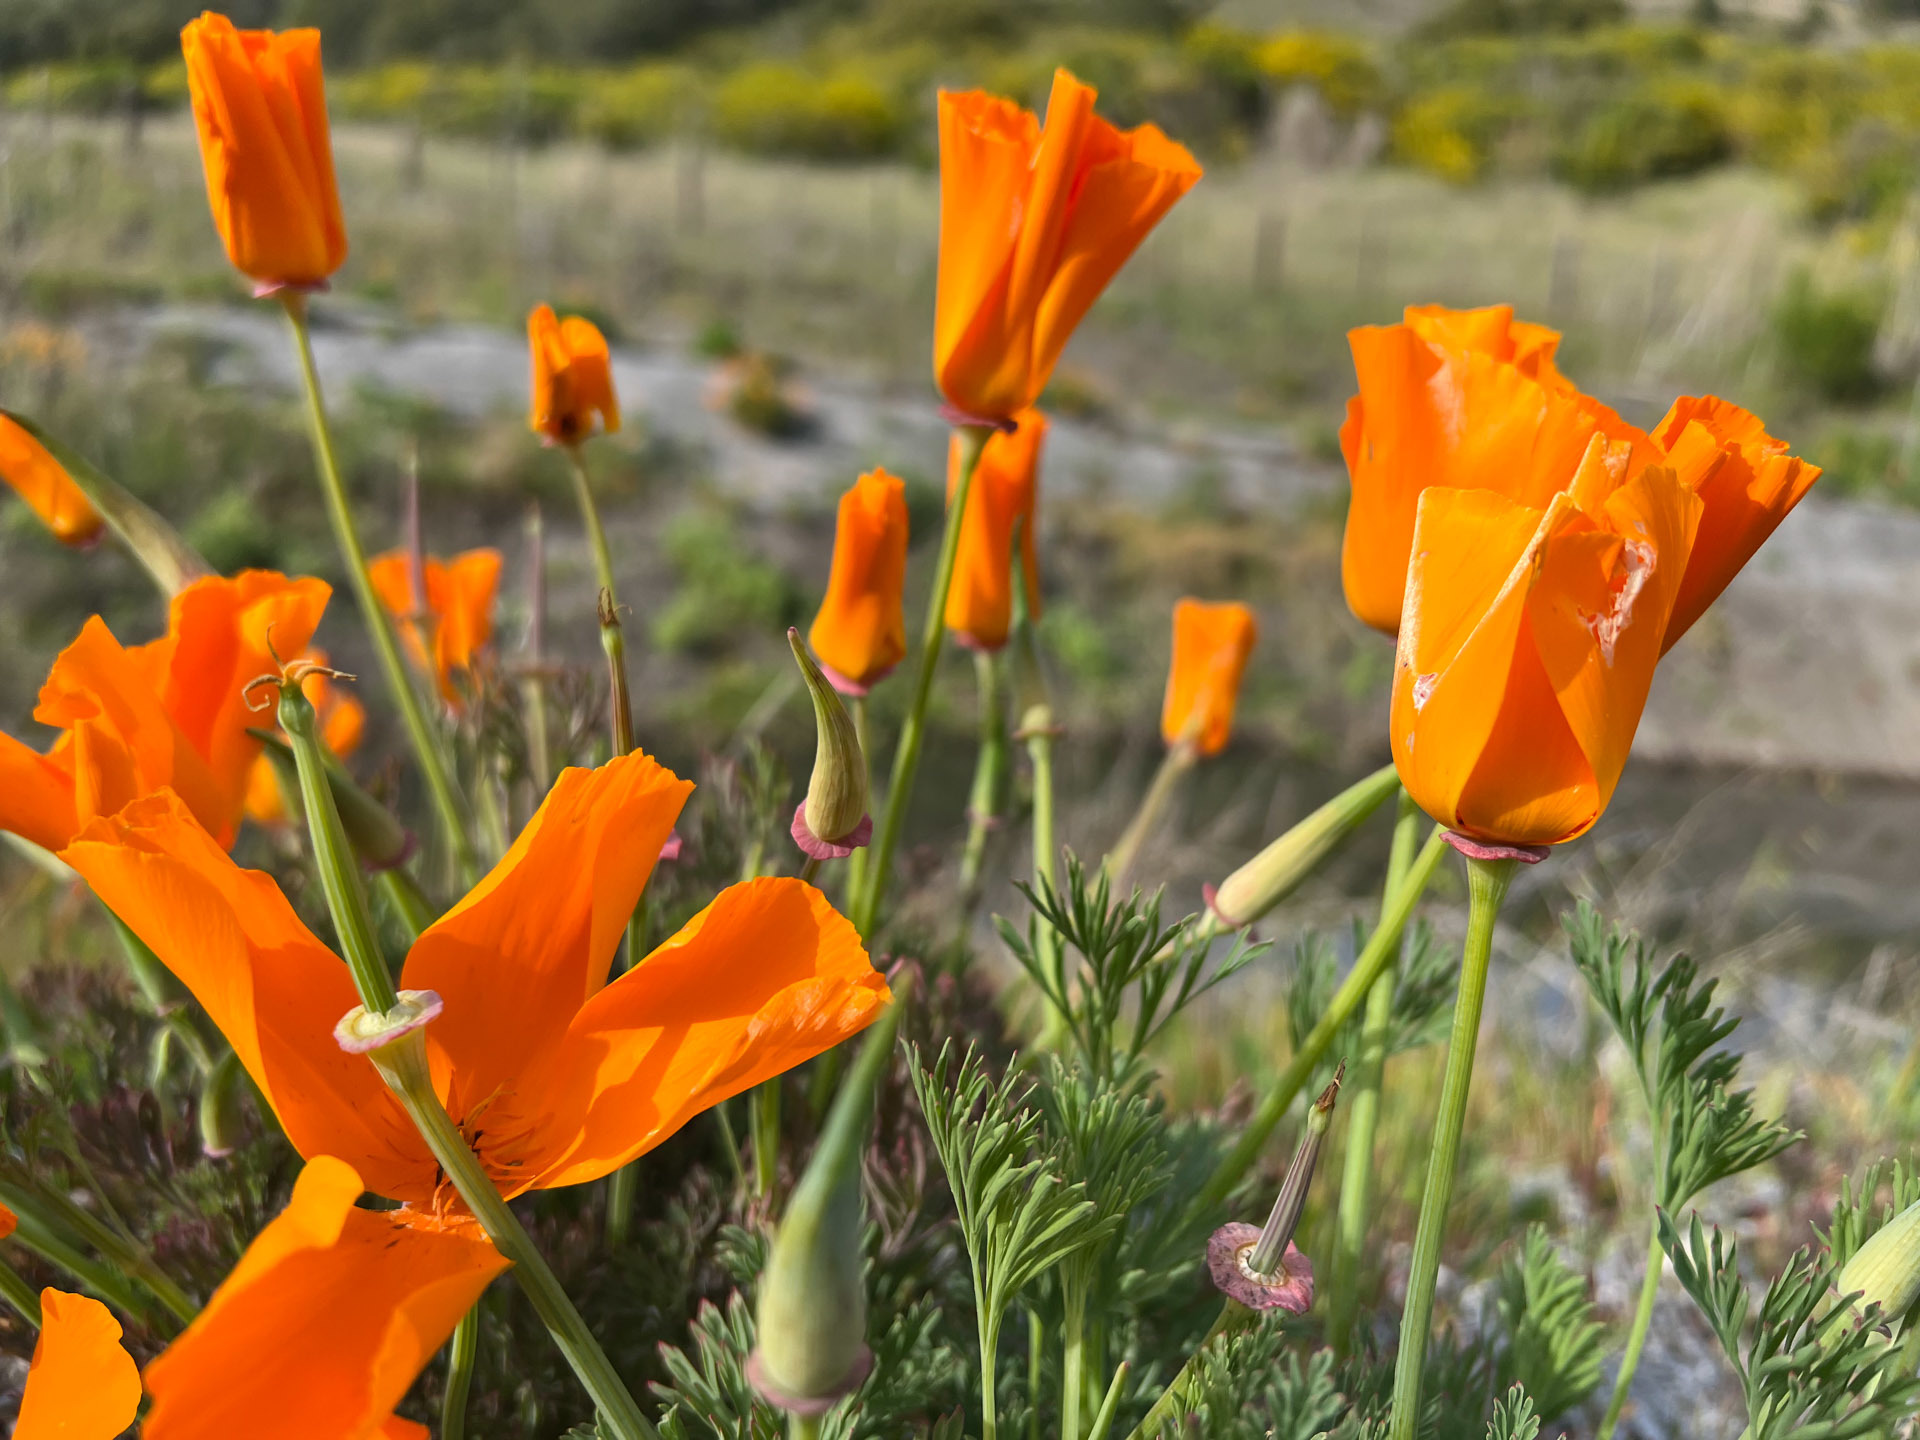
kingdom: Plantae
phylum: Tracheophyta
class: Magnoliopsida
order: Ranunculales
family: Papaveraceae
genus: Eschscholzia
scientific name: Eschscholzia californica
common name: California poppy
